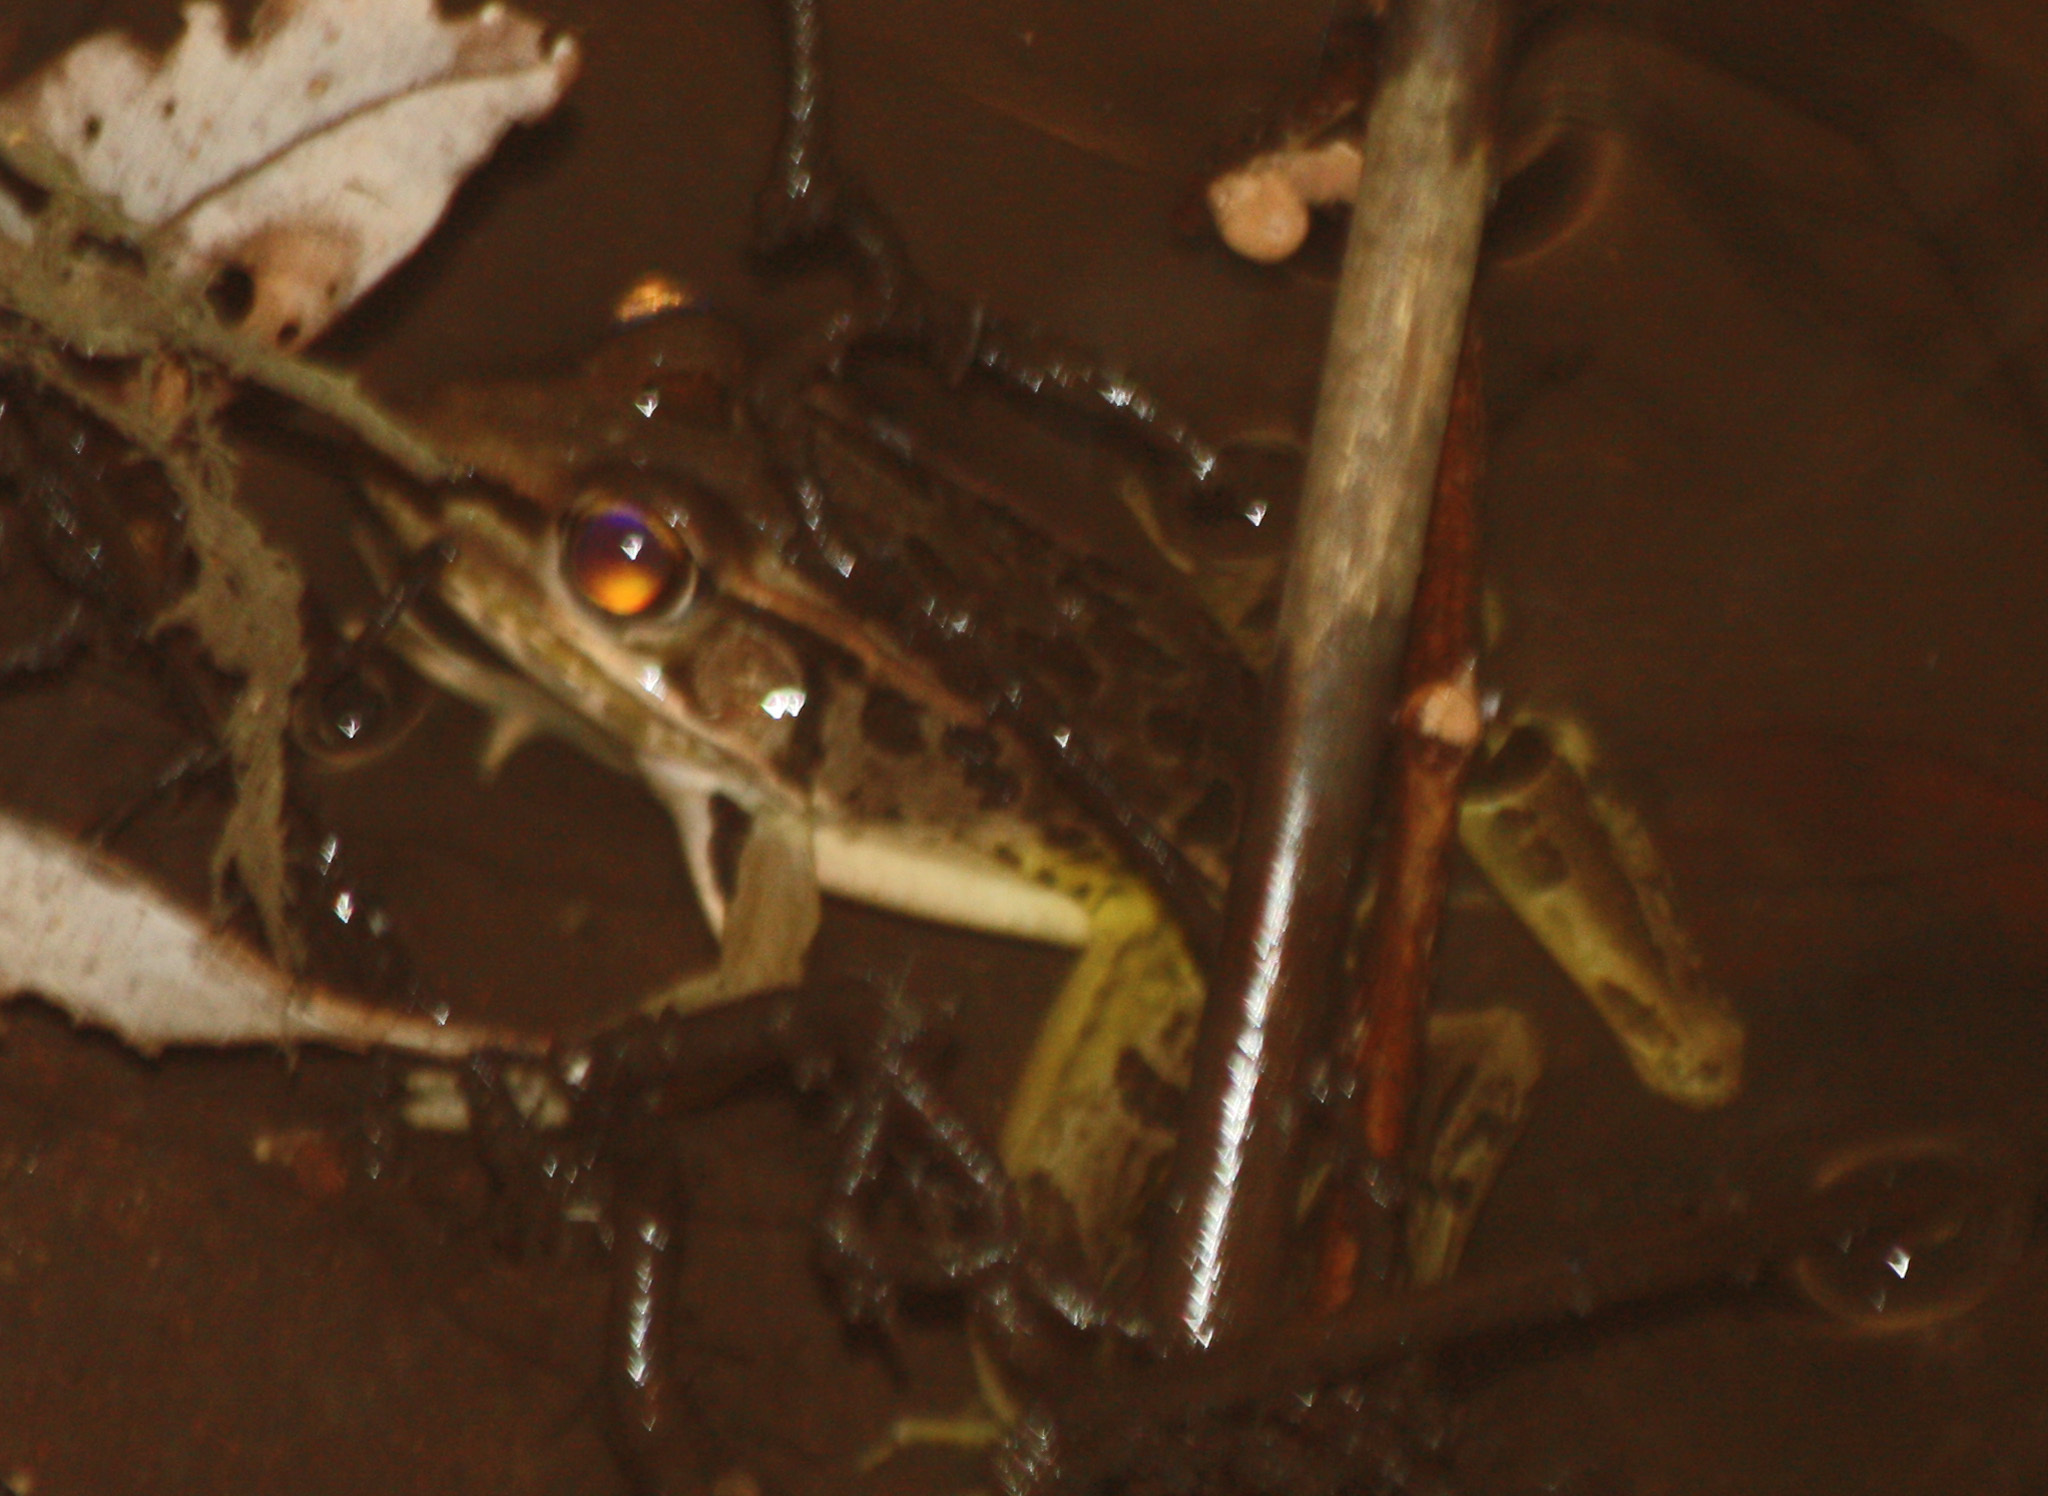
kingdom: Animalia
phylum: Chordata
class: Amphibia
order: Anura
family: Ranidae
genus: Lithobates
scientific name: Lithobates forreri
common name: Forrer's grass frog
